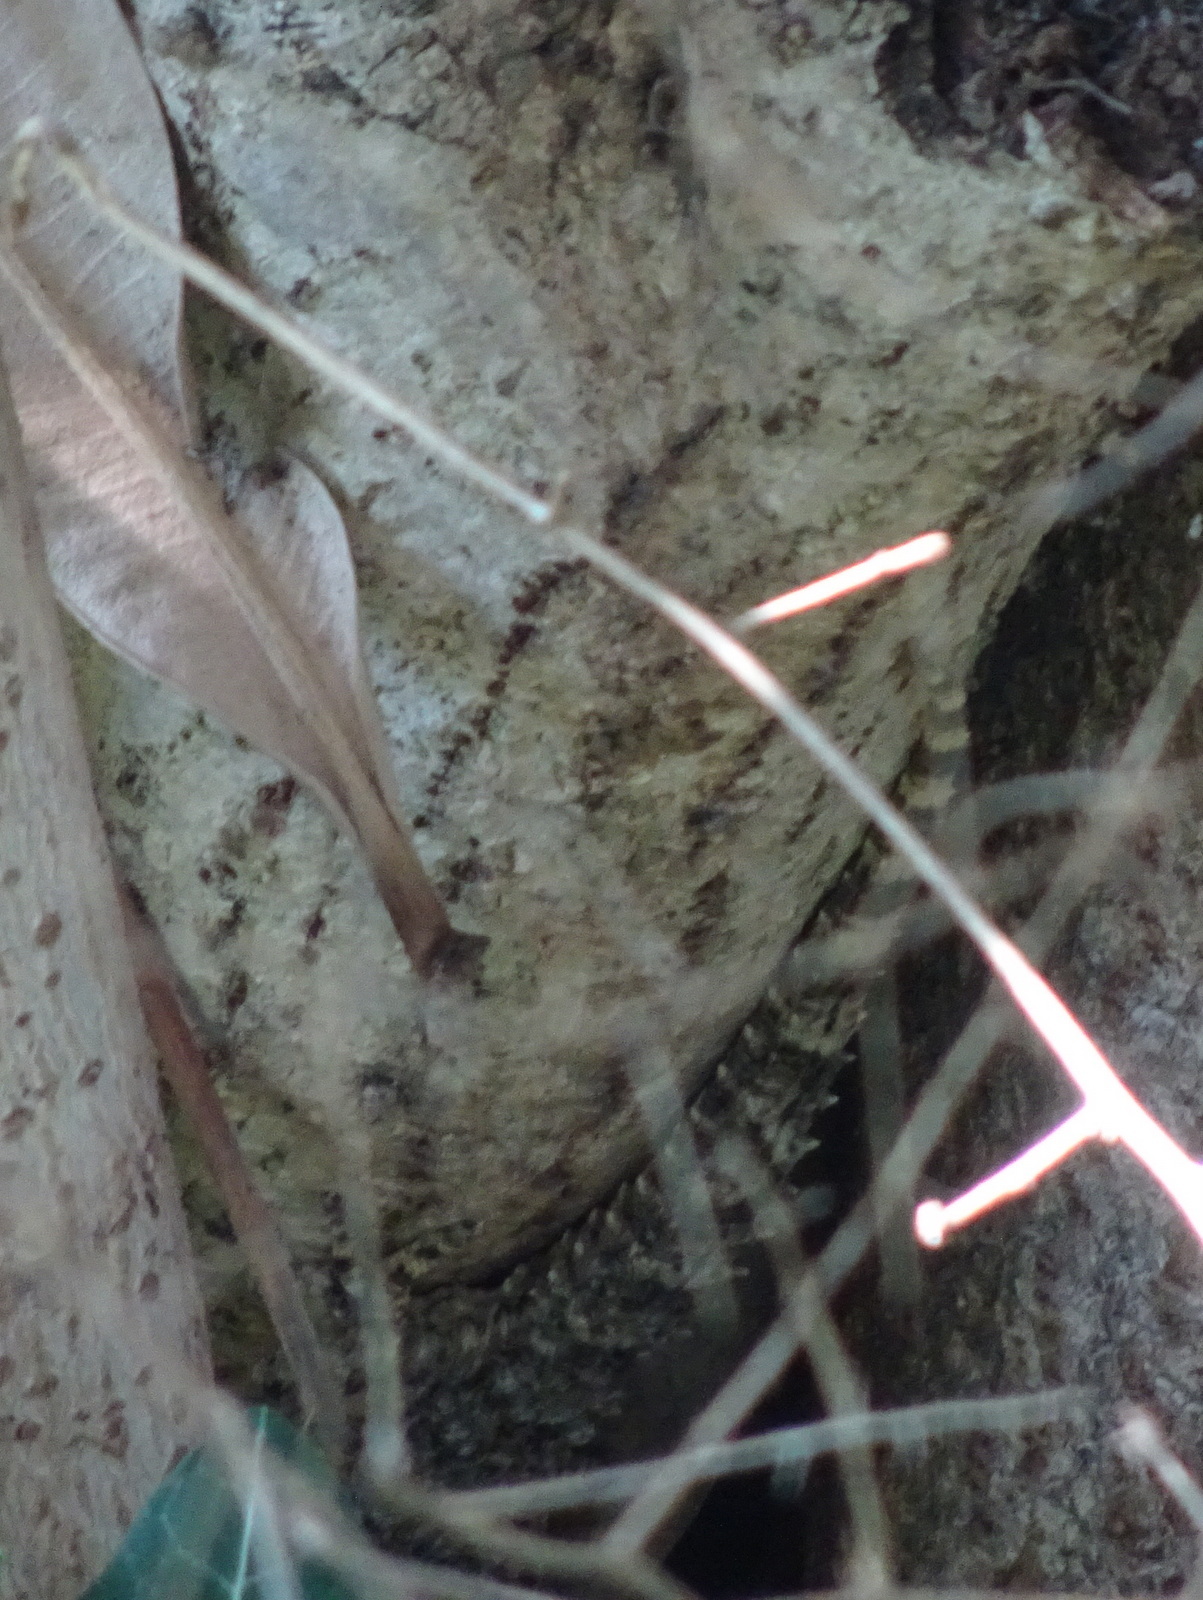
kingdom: Animalia
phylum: Chordata
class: Squamata
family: Phyllodactylidae
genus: Tarentola
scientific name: Tarentola mauritanica
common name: Moorish gecko
